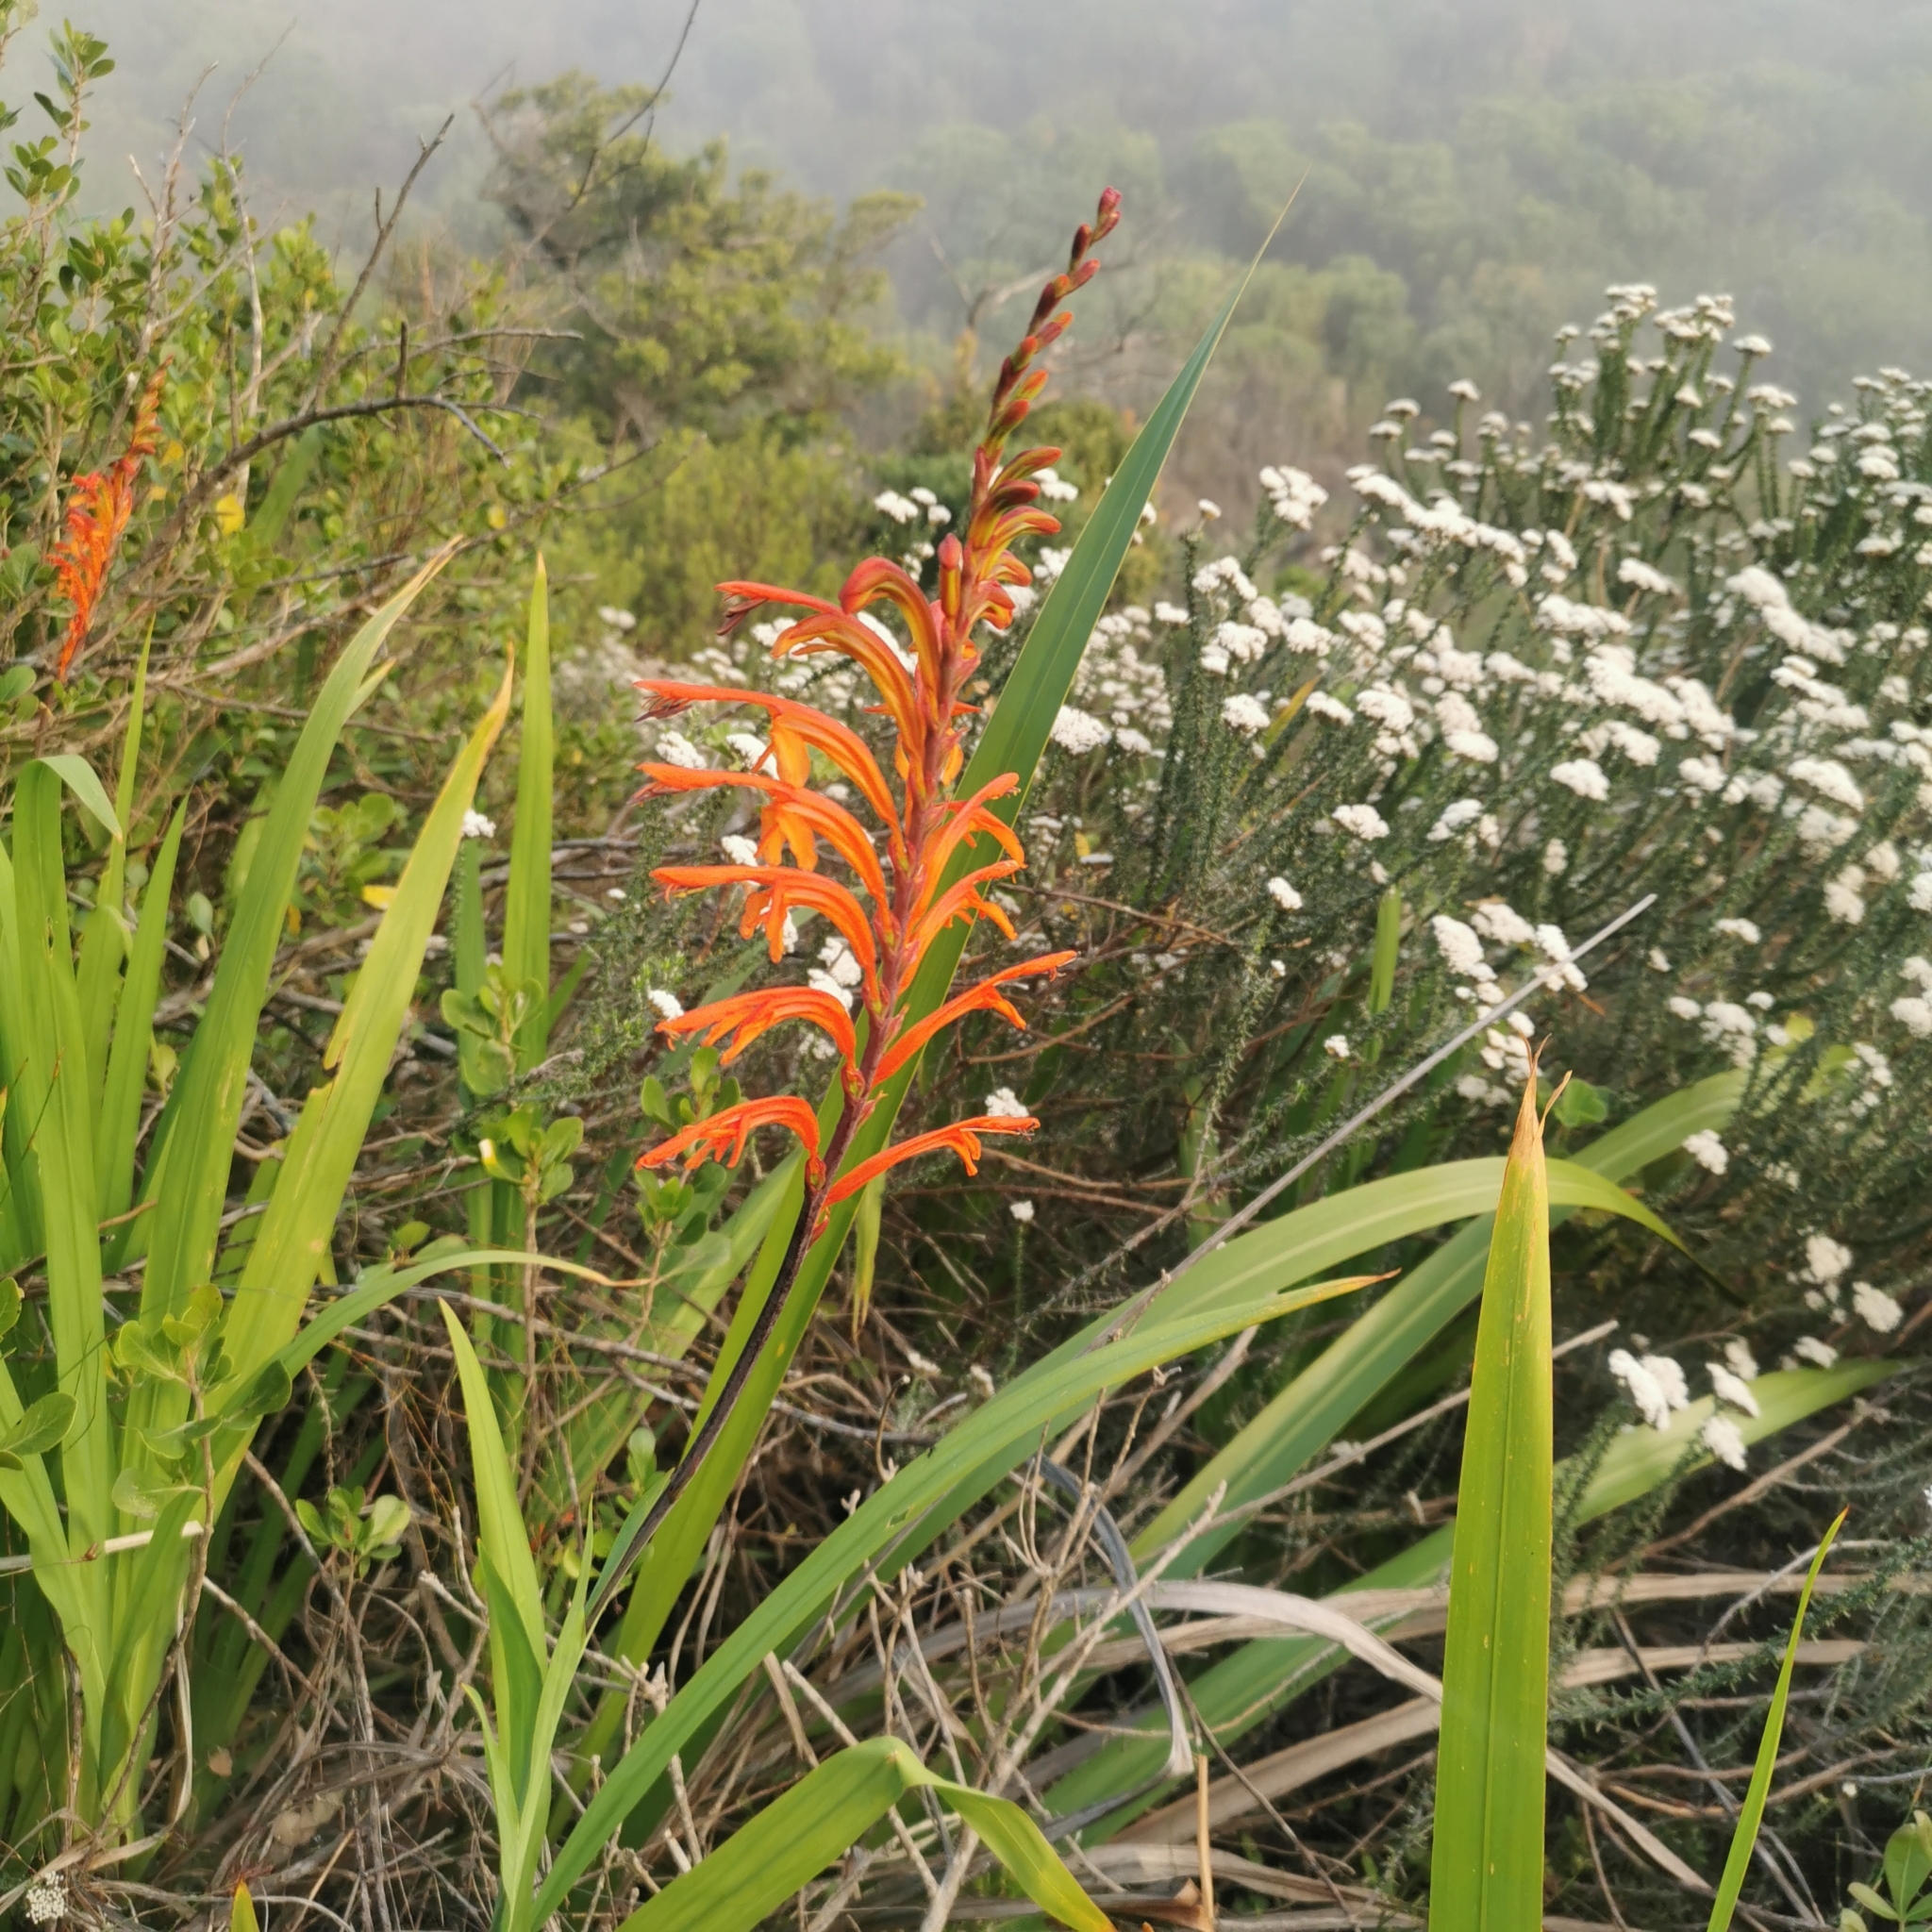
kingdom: Plantae
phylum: Tracheophyta
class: Liliopsida
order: Asparagales
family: Iridaceae
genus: Chasmanthe
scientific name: Chasmanthe floribunda
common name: African cornflag
